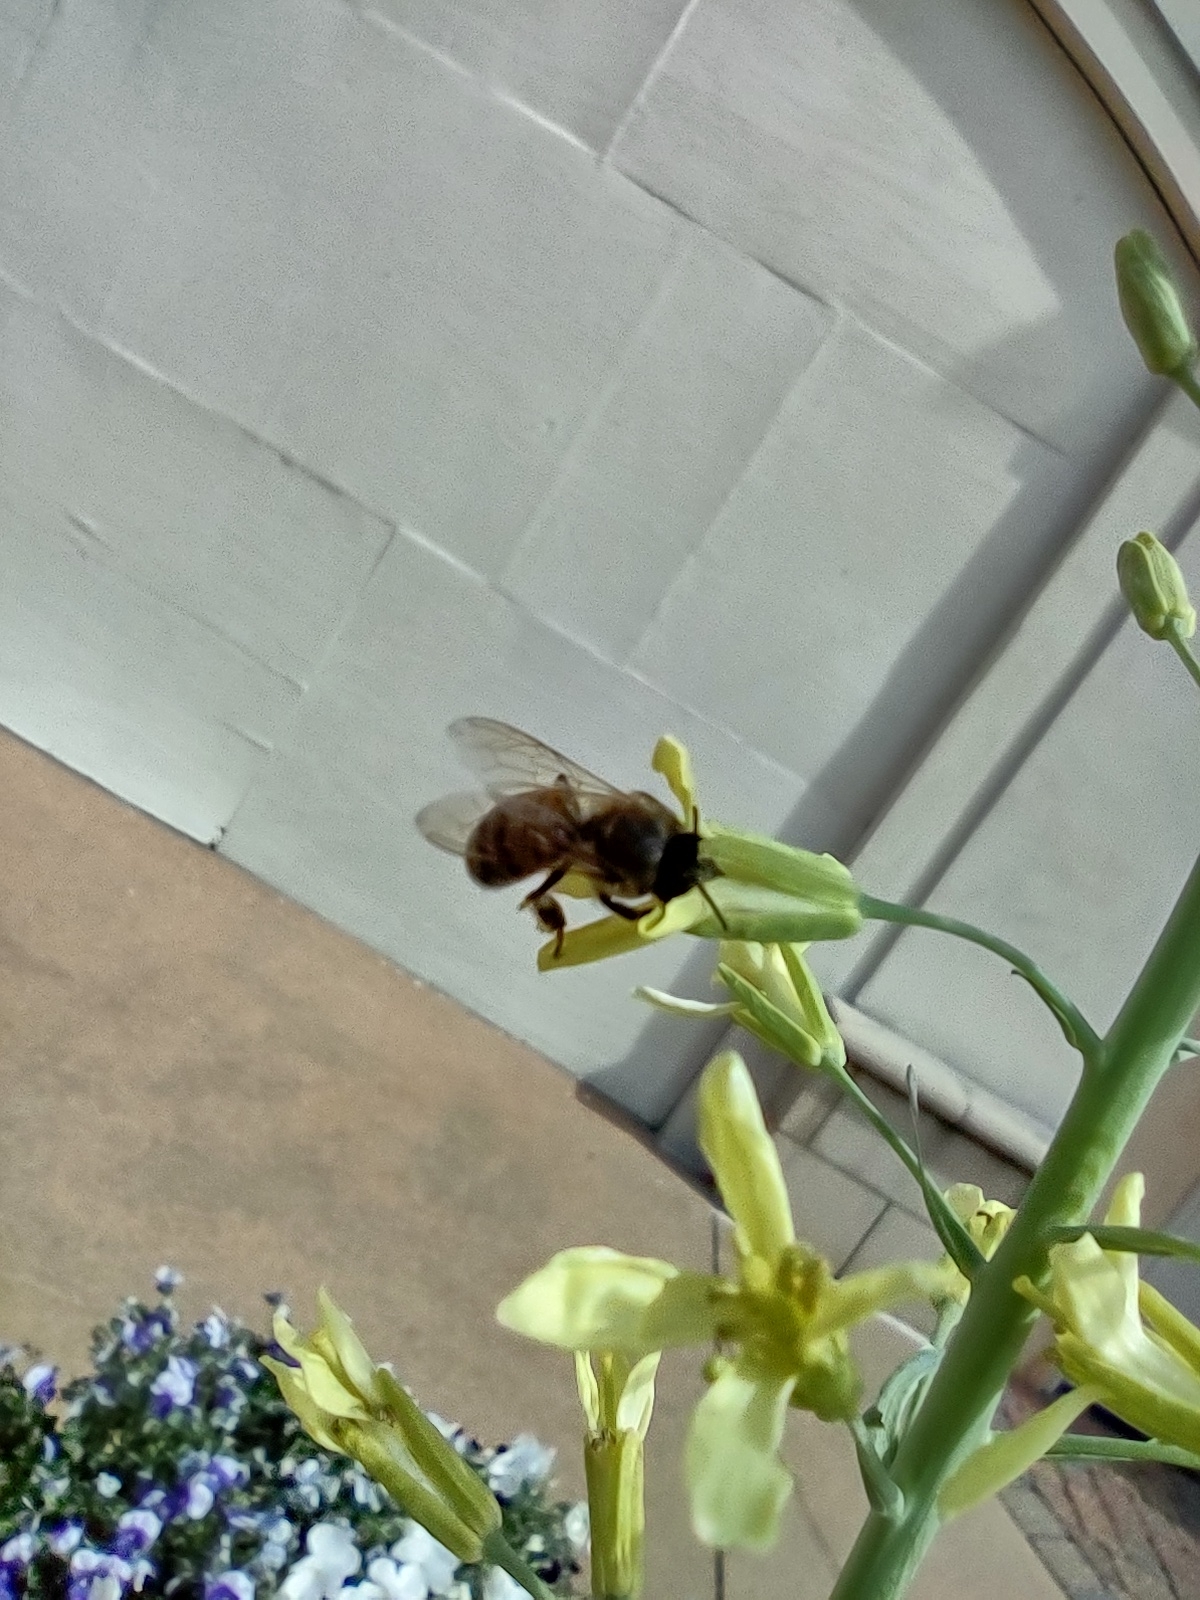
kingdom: Animalia
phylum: Arthropoda
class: Insecta
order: Hymenoptera
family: Apidae
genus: Apis
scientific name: Apis mellifera
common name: Honey bee
